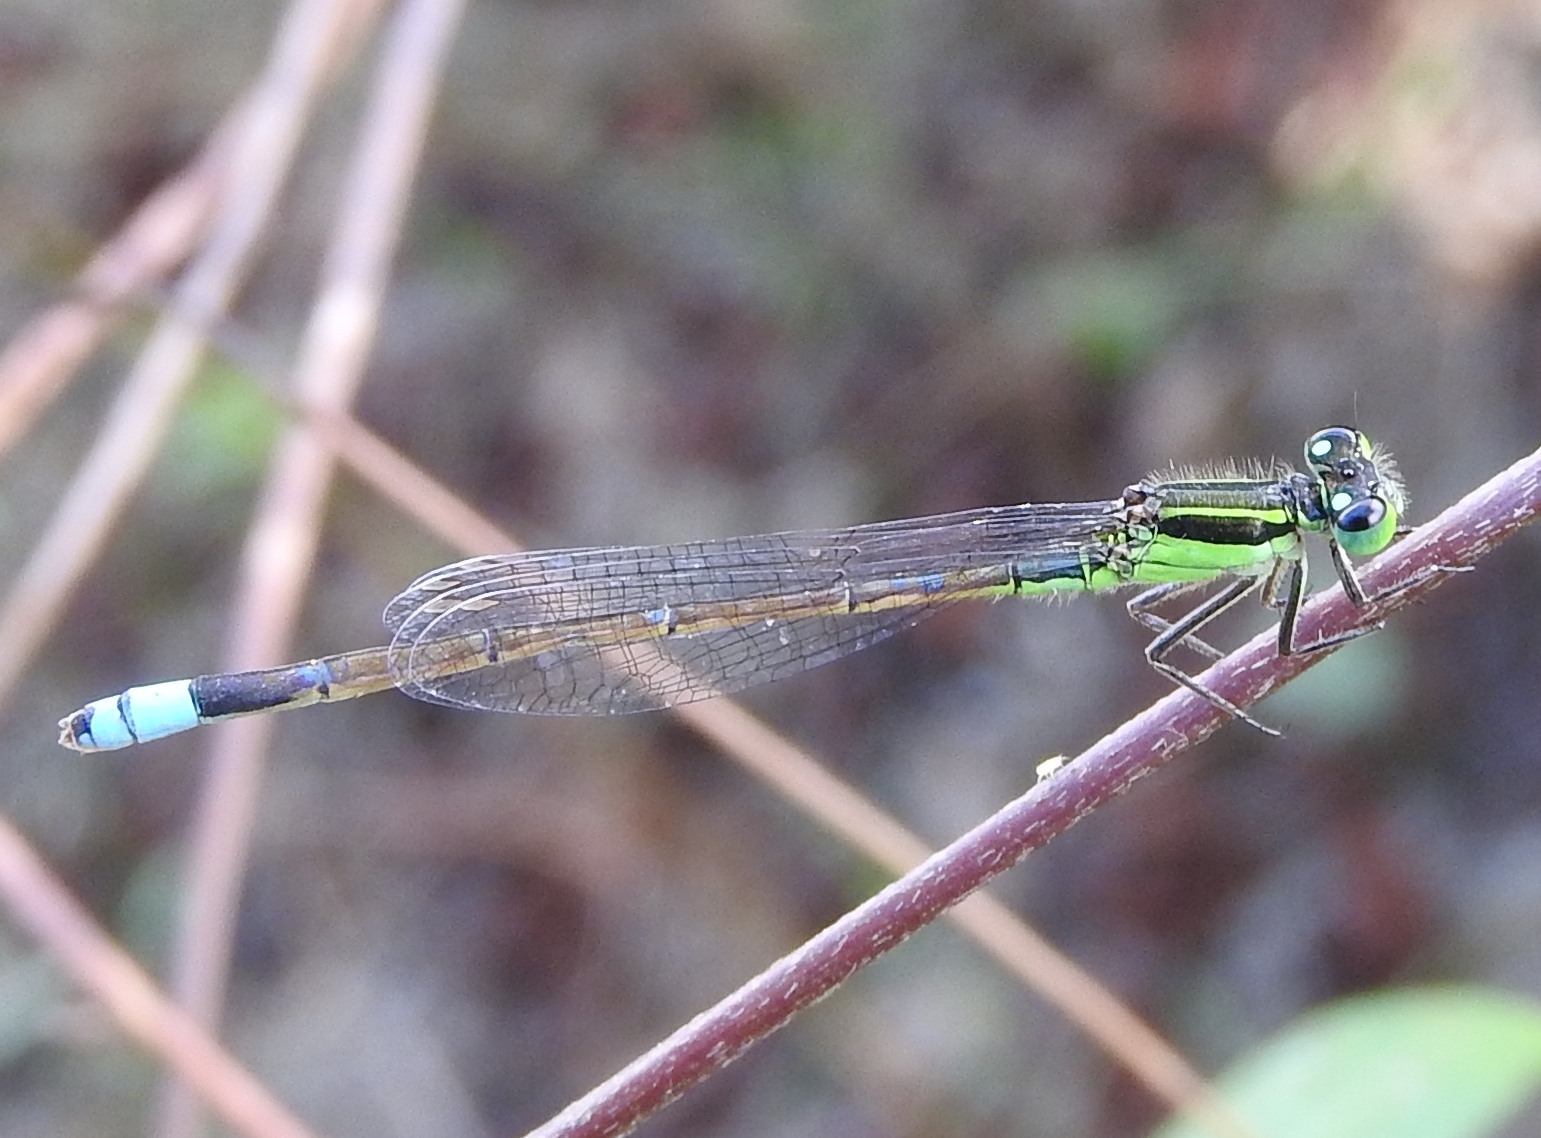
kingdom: Animalia
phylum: Arthropoda
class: Insecta
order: Odonata
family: Coenagrionidae
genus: Ischnura
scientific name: Ischnura ramburii
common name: Rambur's forktail
